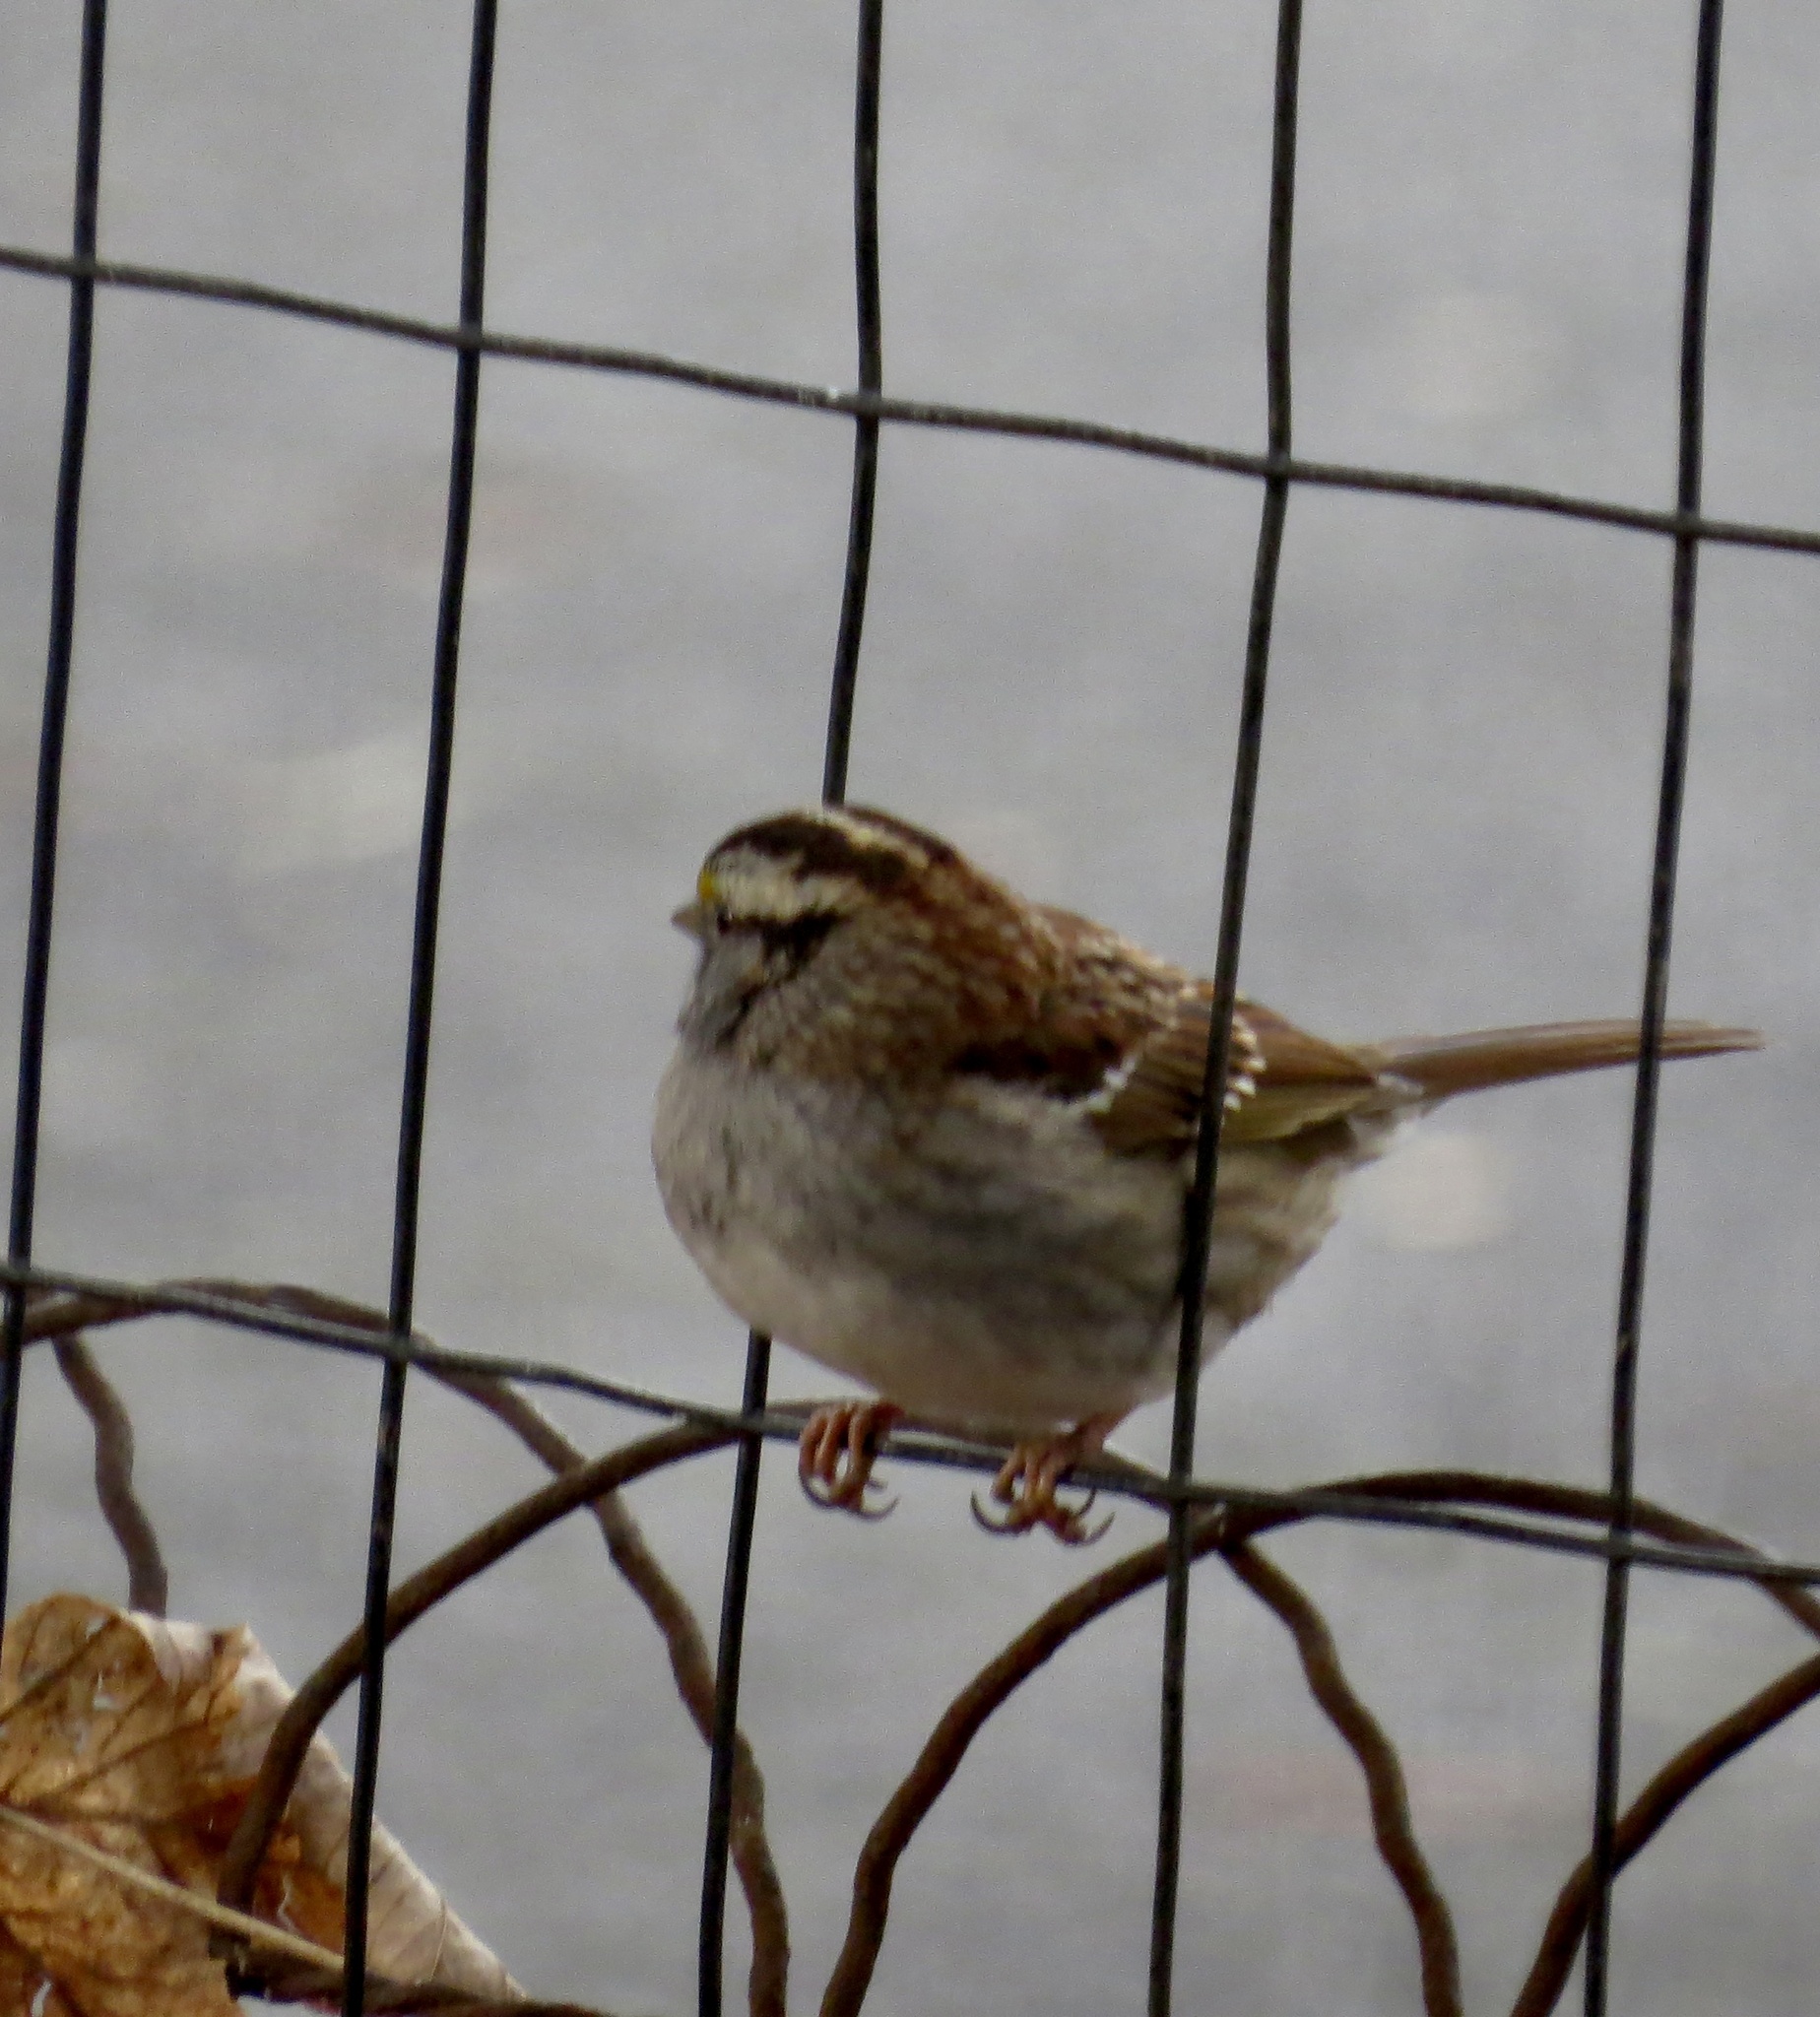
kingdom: Animalia
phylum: Chordata
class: Aves
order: Passeriformes
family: Passerellidae
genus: Zonotrichia
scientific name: Zonotrichia albicollis
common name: White-throated sparrow
